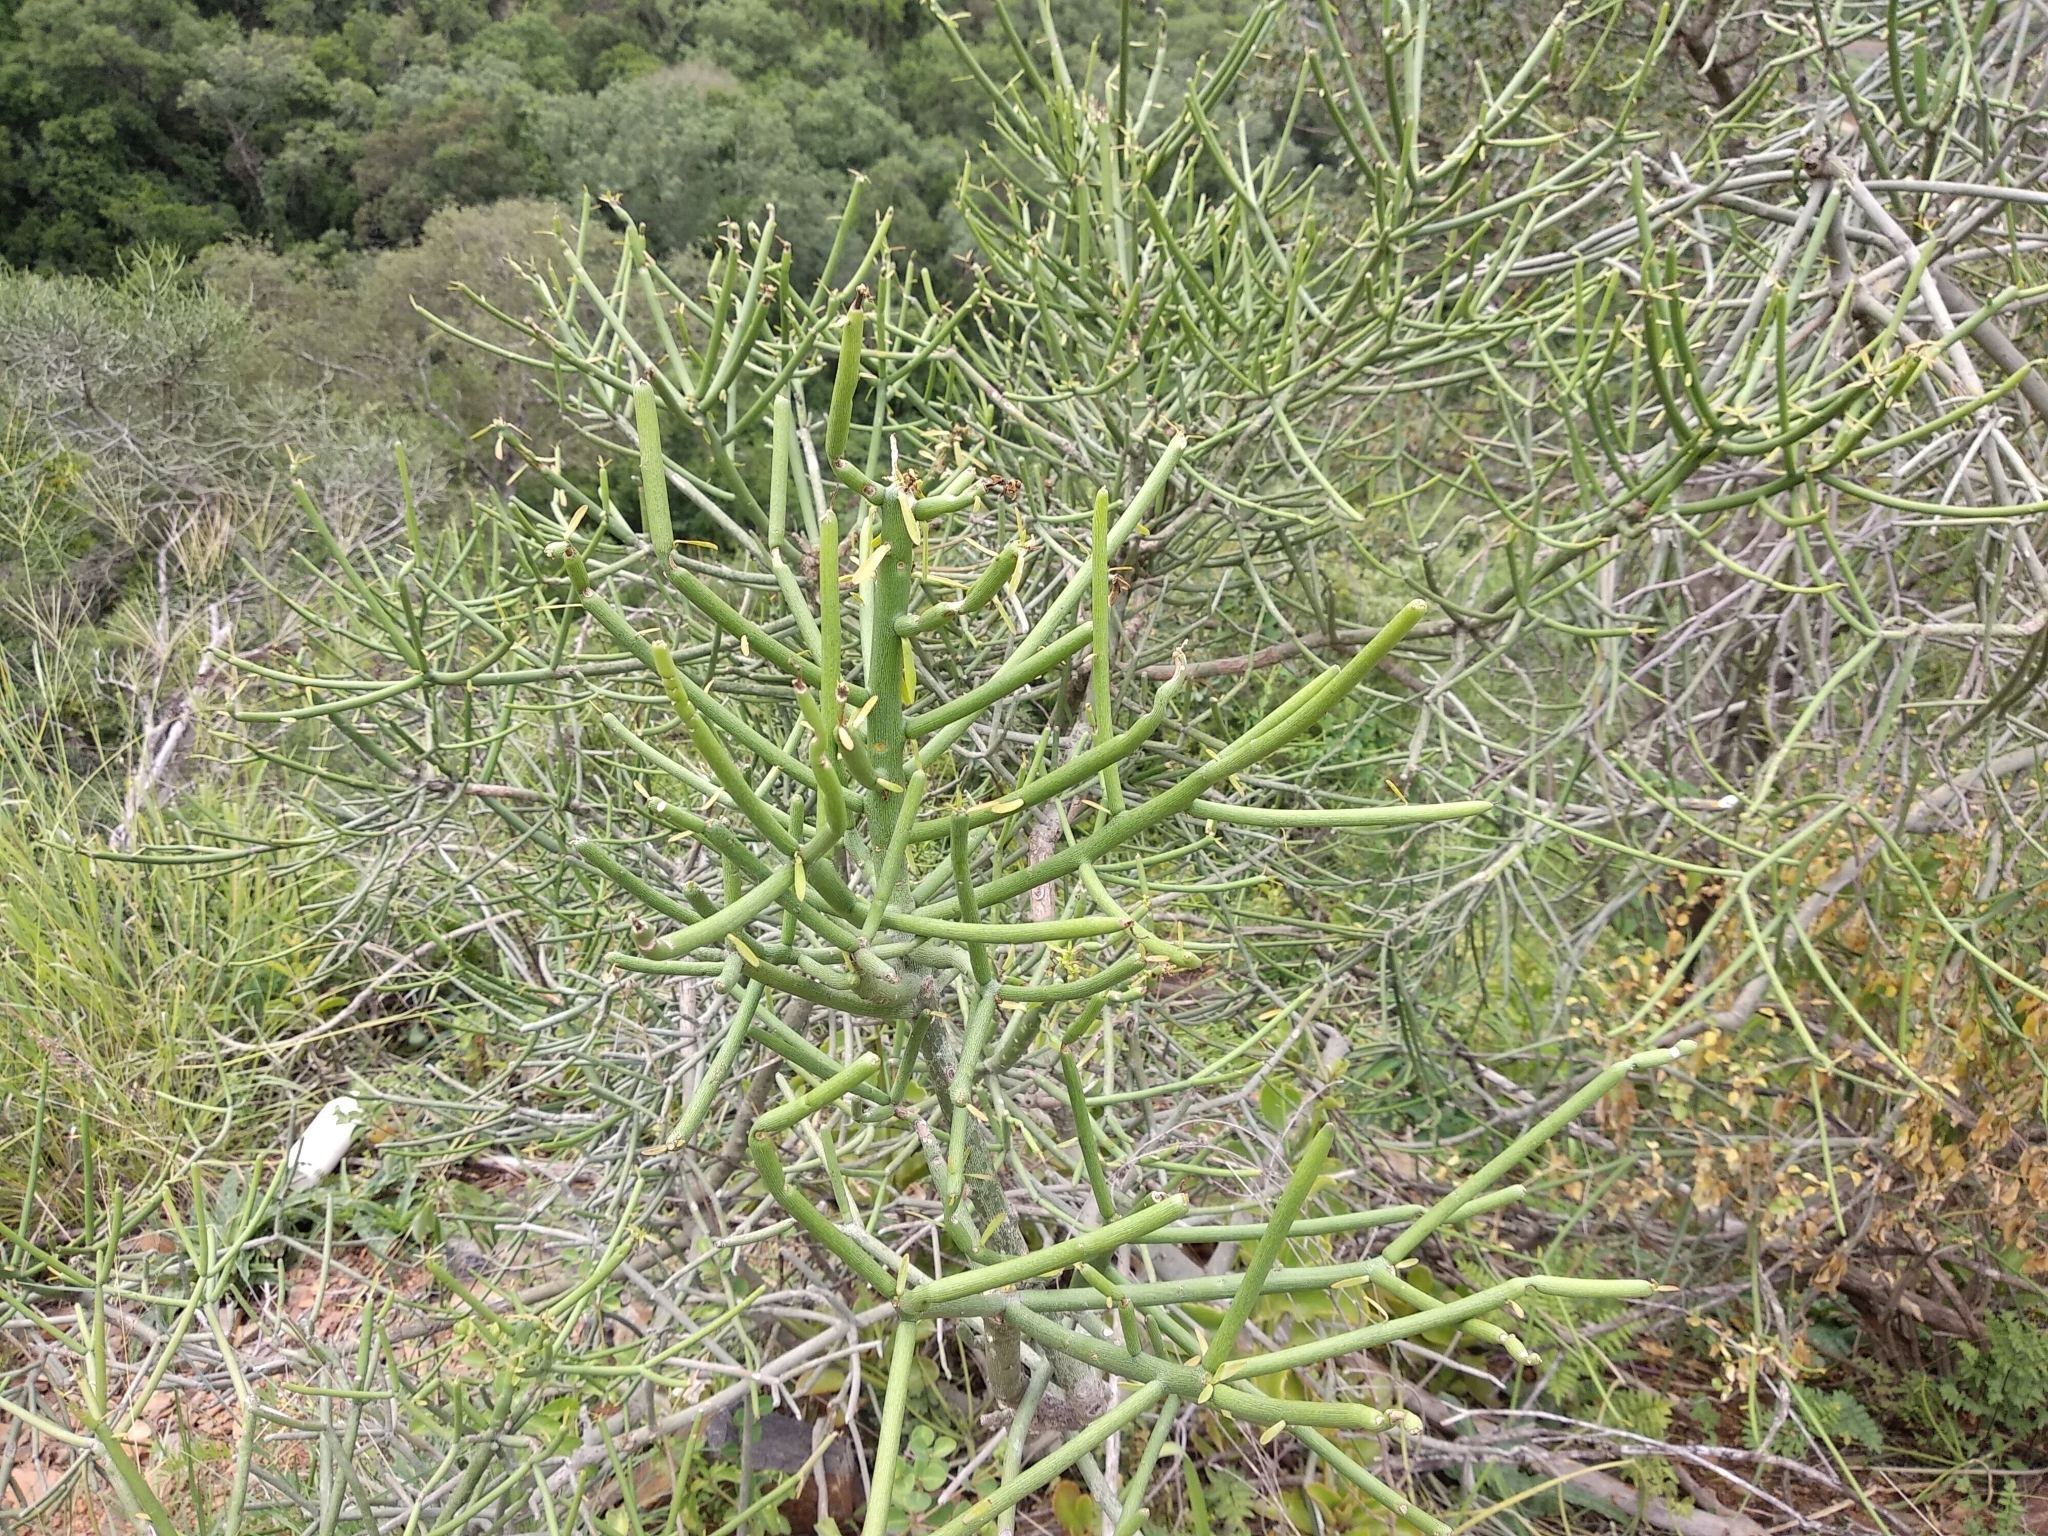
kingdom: Plantae
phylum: Tracheophyta
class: Magnoliopsida
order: Malpighiales
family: Euphorbiaceae
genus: Euphorbia
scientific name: Euphorbia tirucalli
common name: Indiantree spurge
